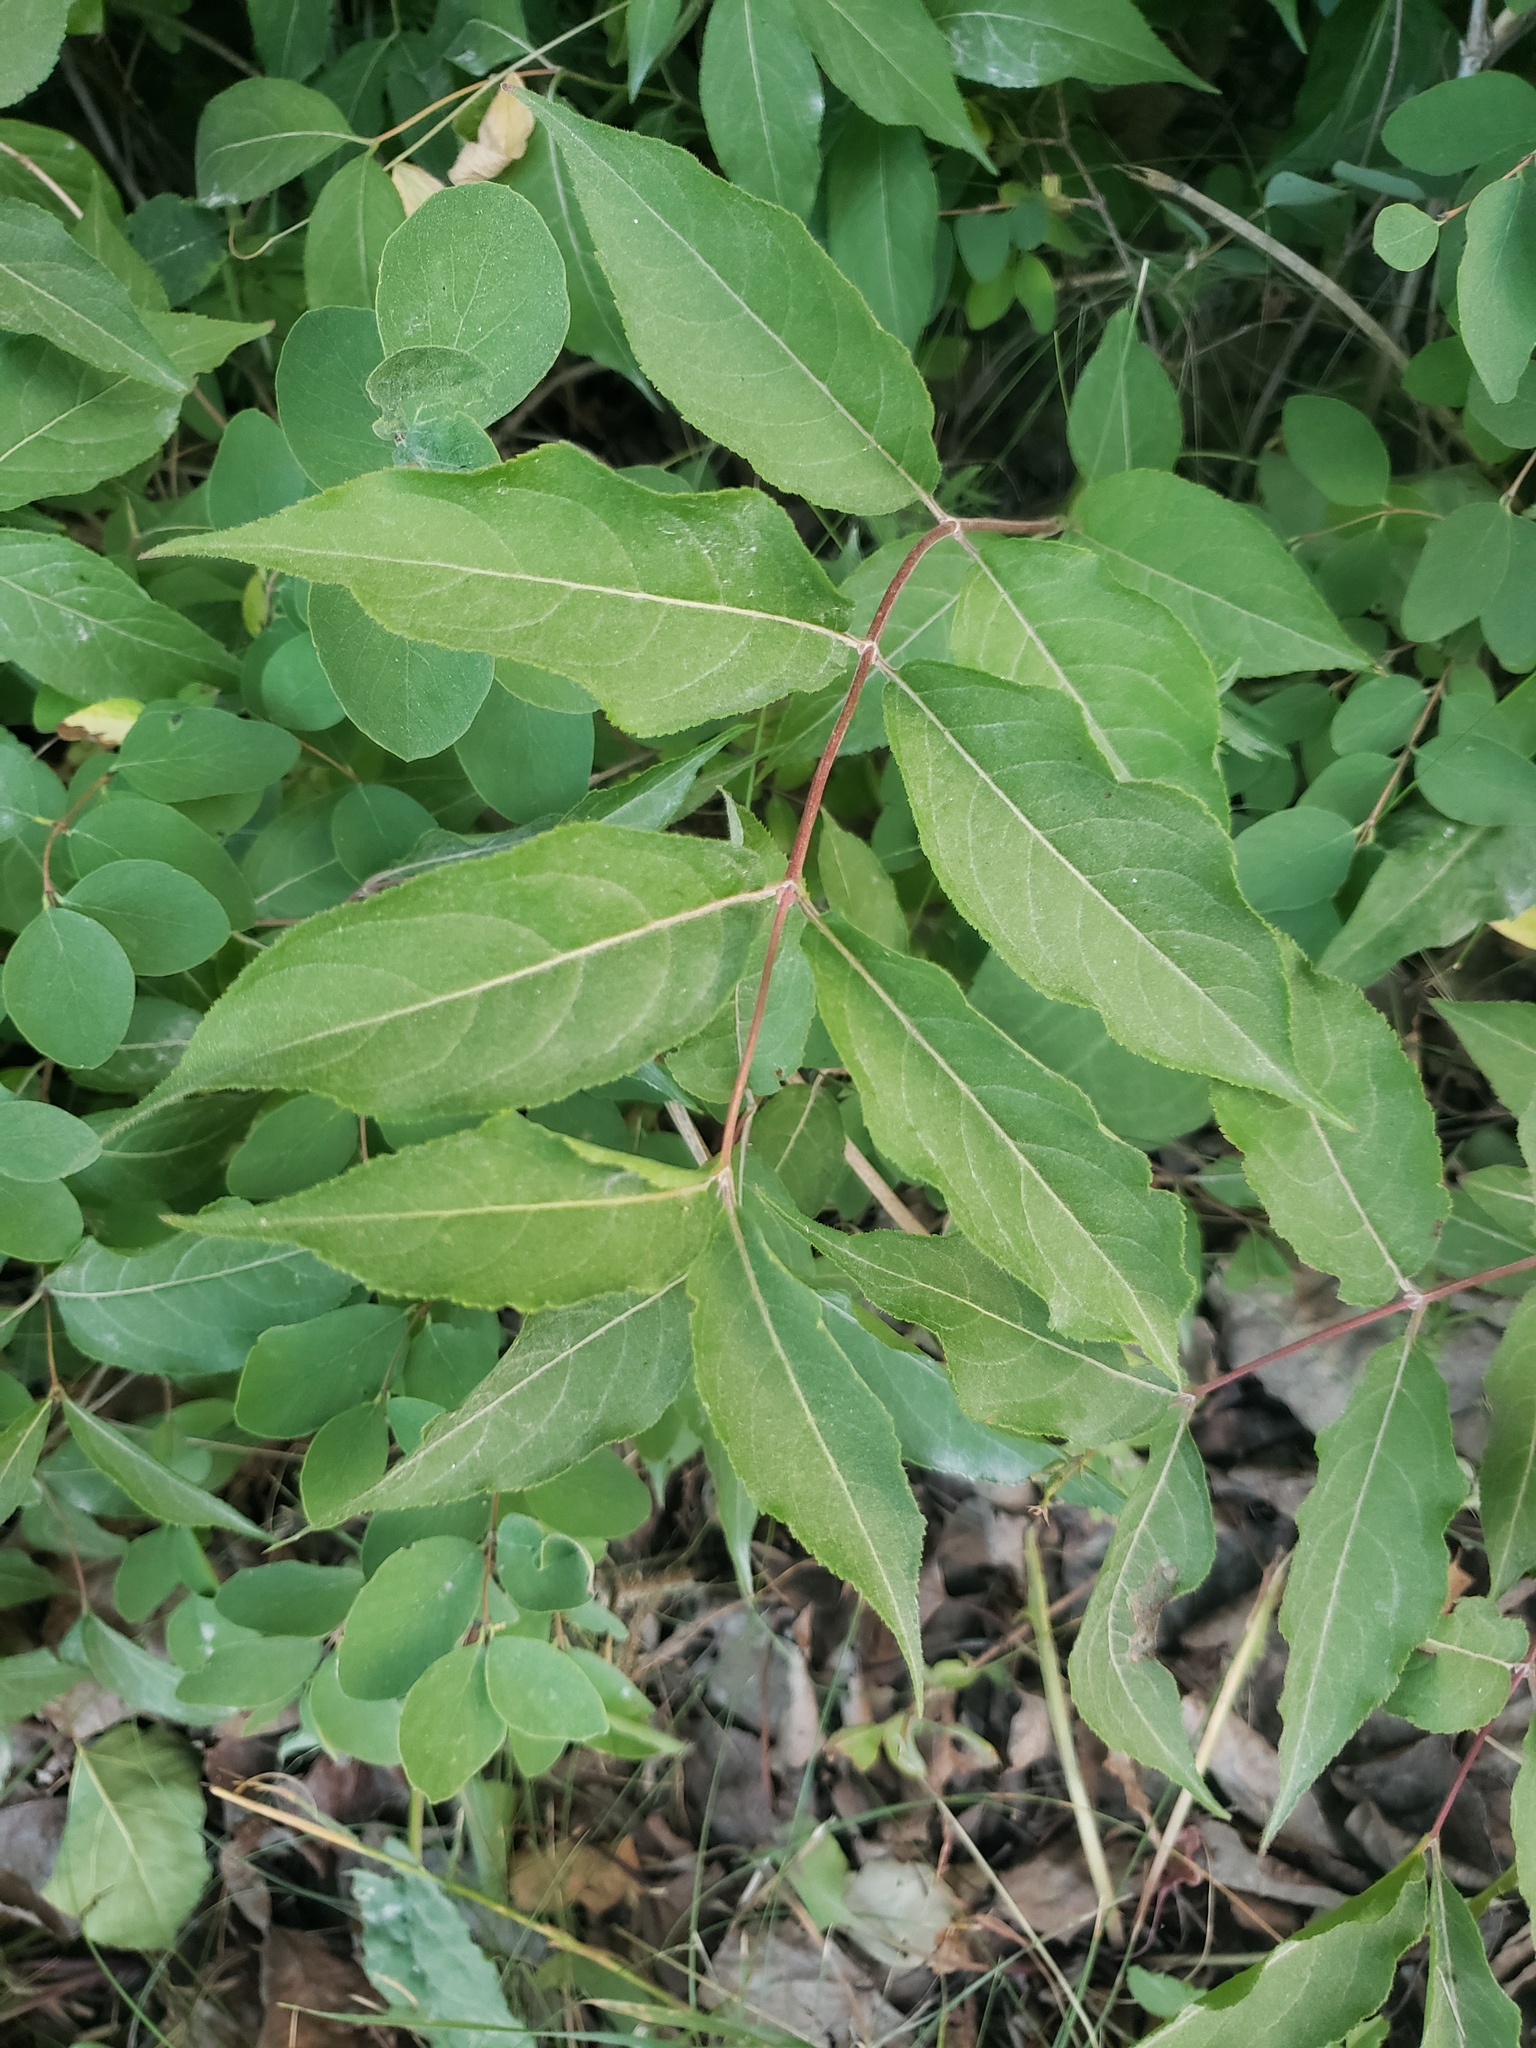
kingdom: Plantae
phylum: Tracheophyta
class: Magnoliopsida
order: Dipsacales
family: Caprifoliaceae
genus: Diervilla
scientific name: Diervilla lonicera
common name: Bush-honeysuckle
